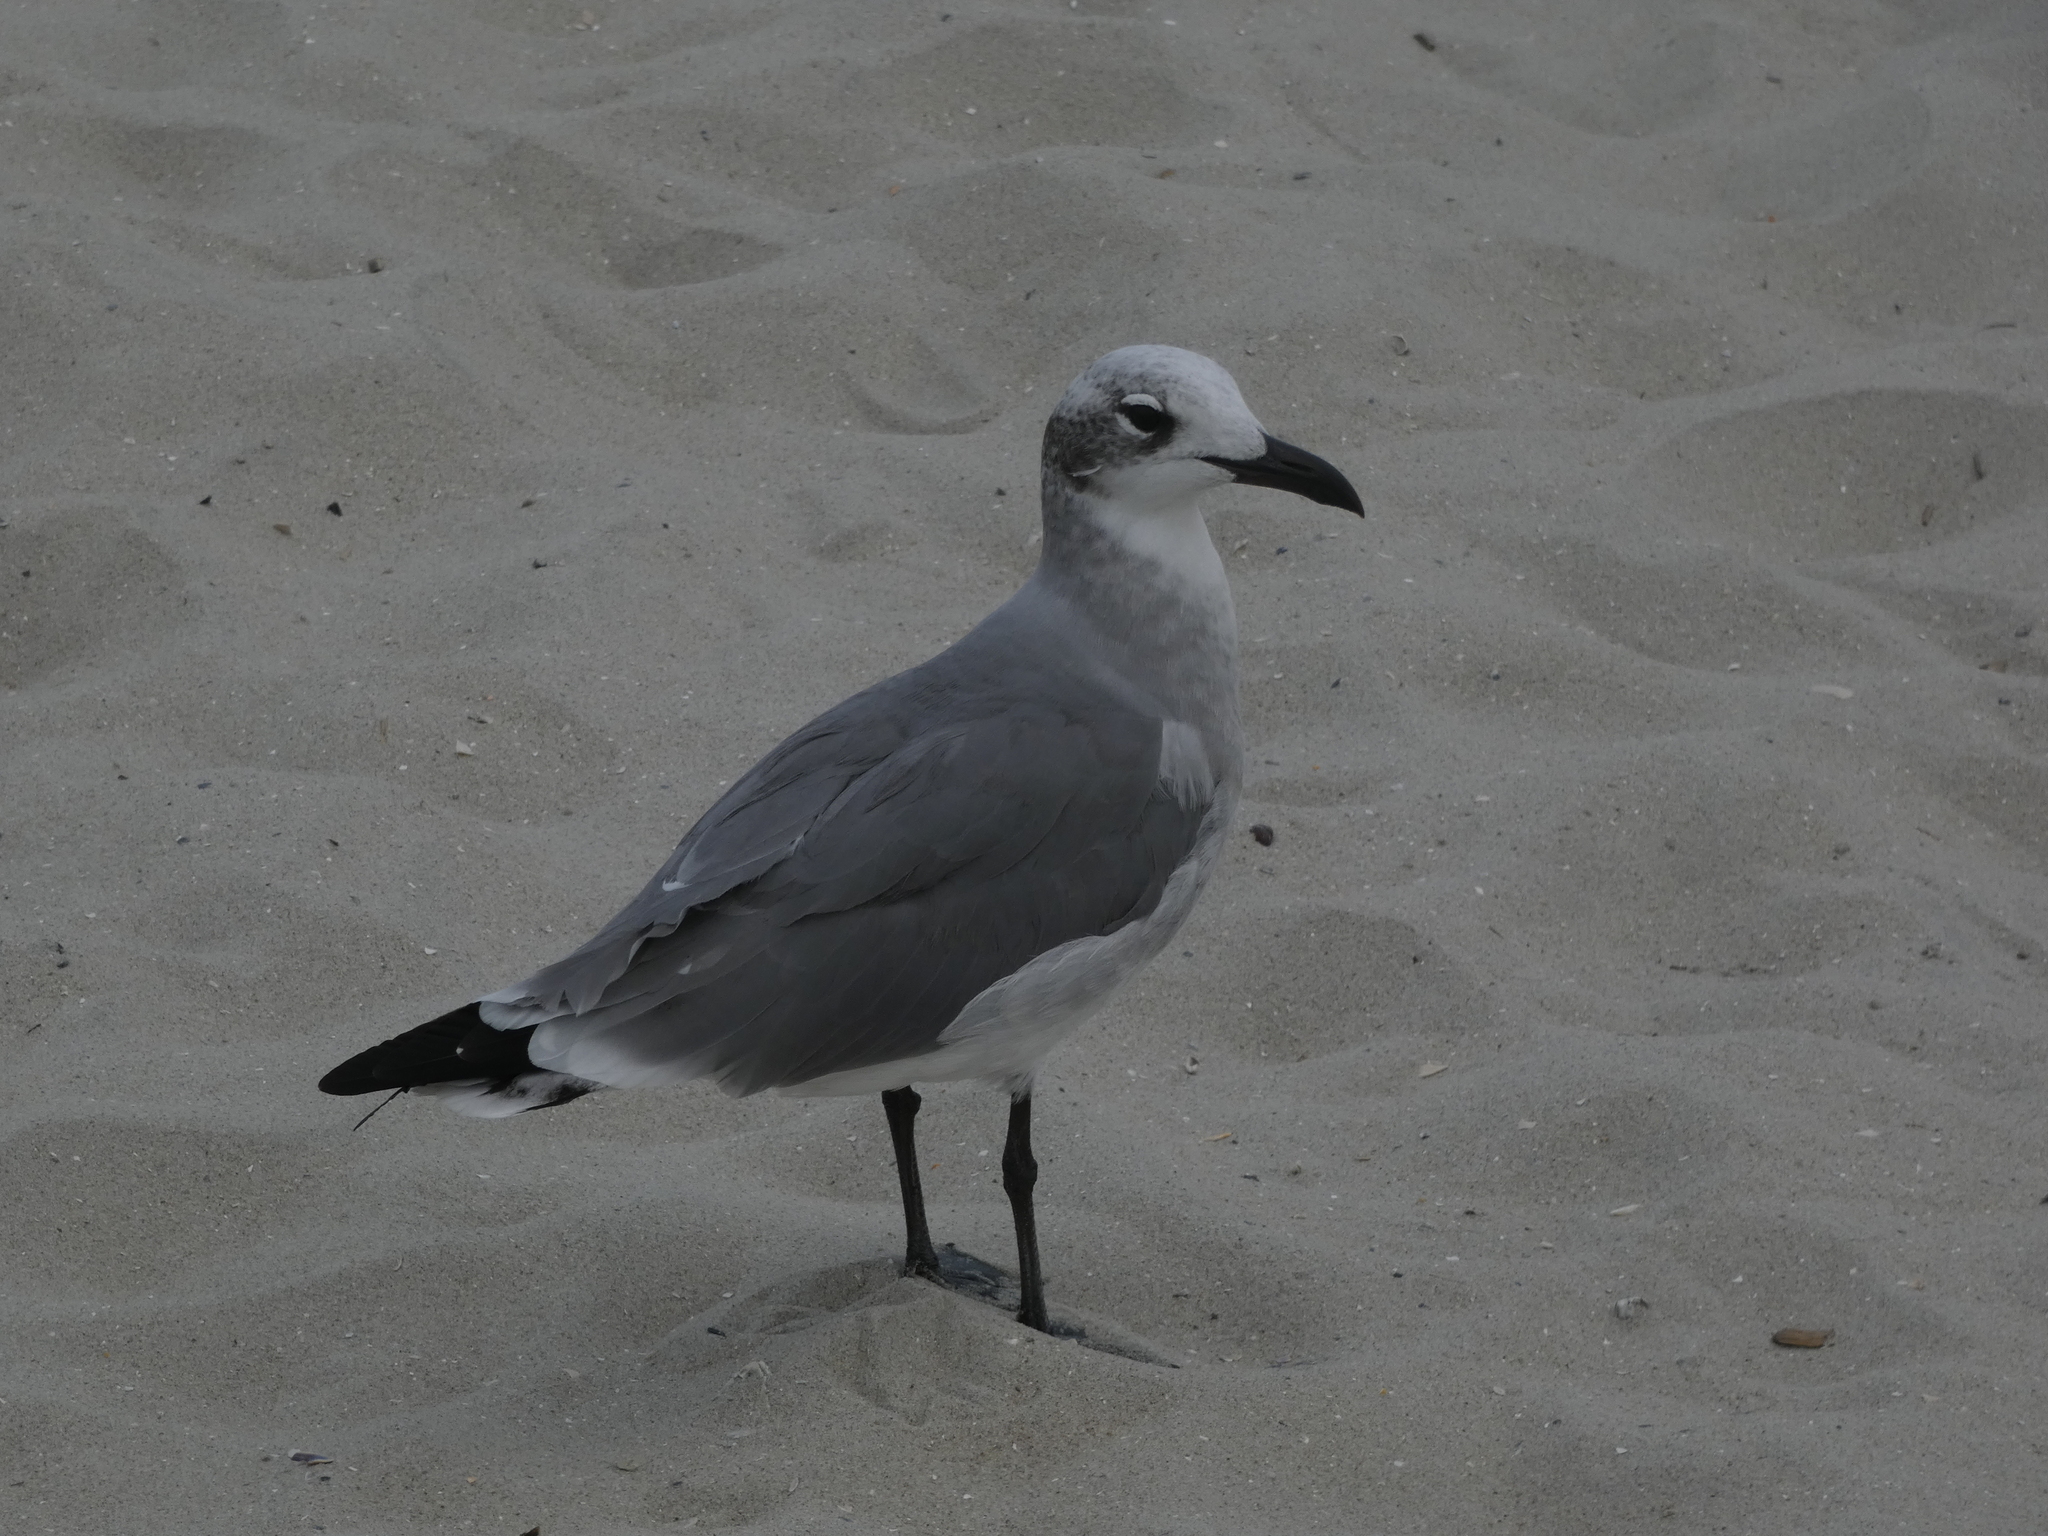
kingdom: Animalia
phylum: Chordata
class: Aves
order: Charadriiformes
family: Laridae
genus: Leucophaeus
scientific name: Leucophaeus atricilla
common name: Laughing gull
